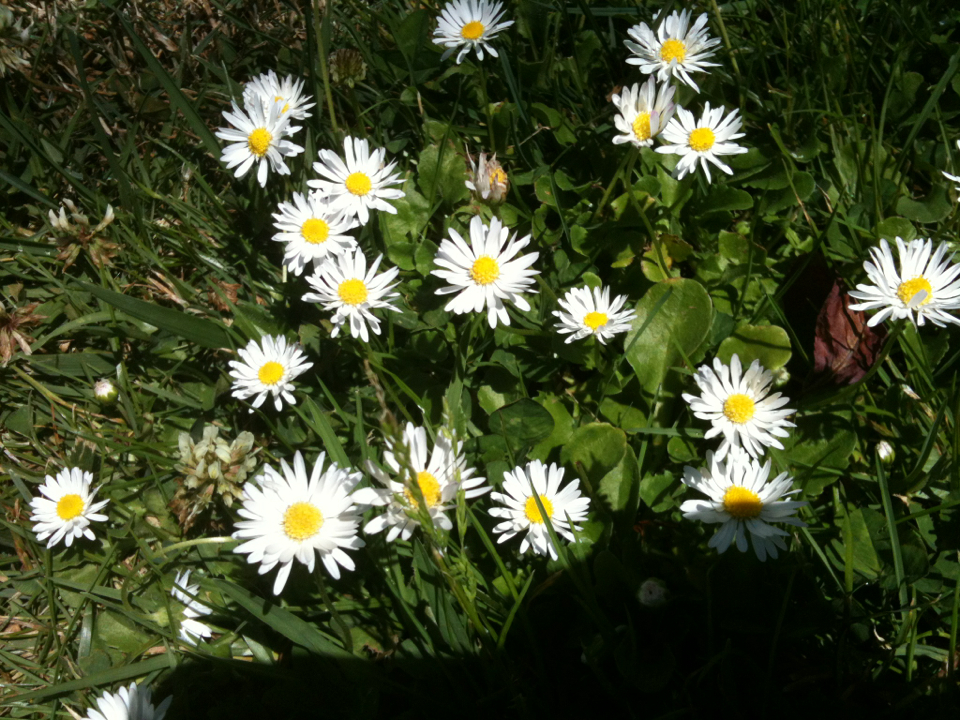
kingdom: Plantae
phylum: Tracheophyta
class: Magnoliopsida
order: Asterales
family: Asteraceae
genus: Bellis
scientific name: Bellis perennis
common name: Lawndaisy
